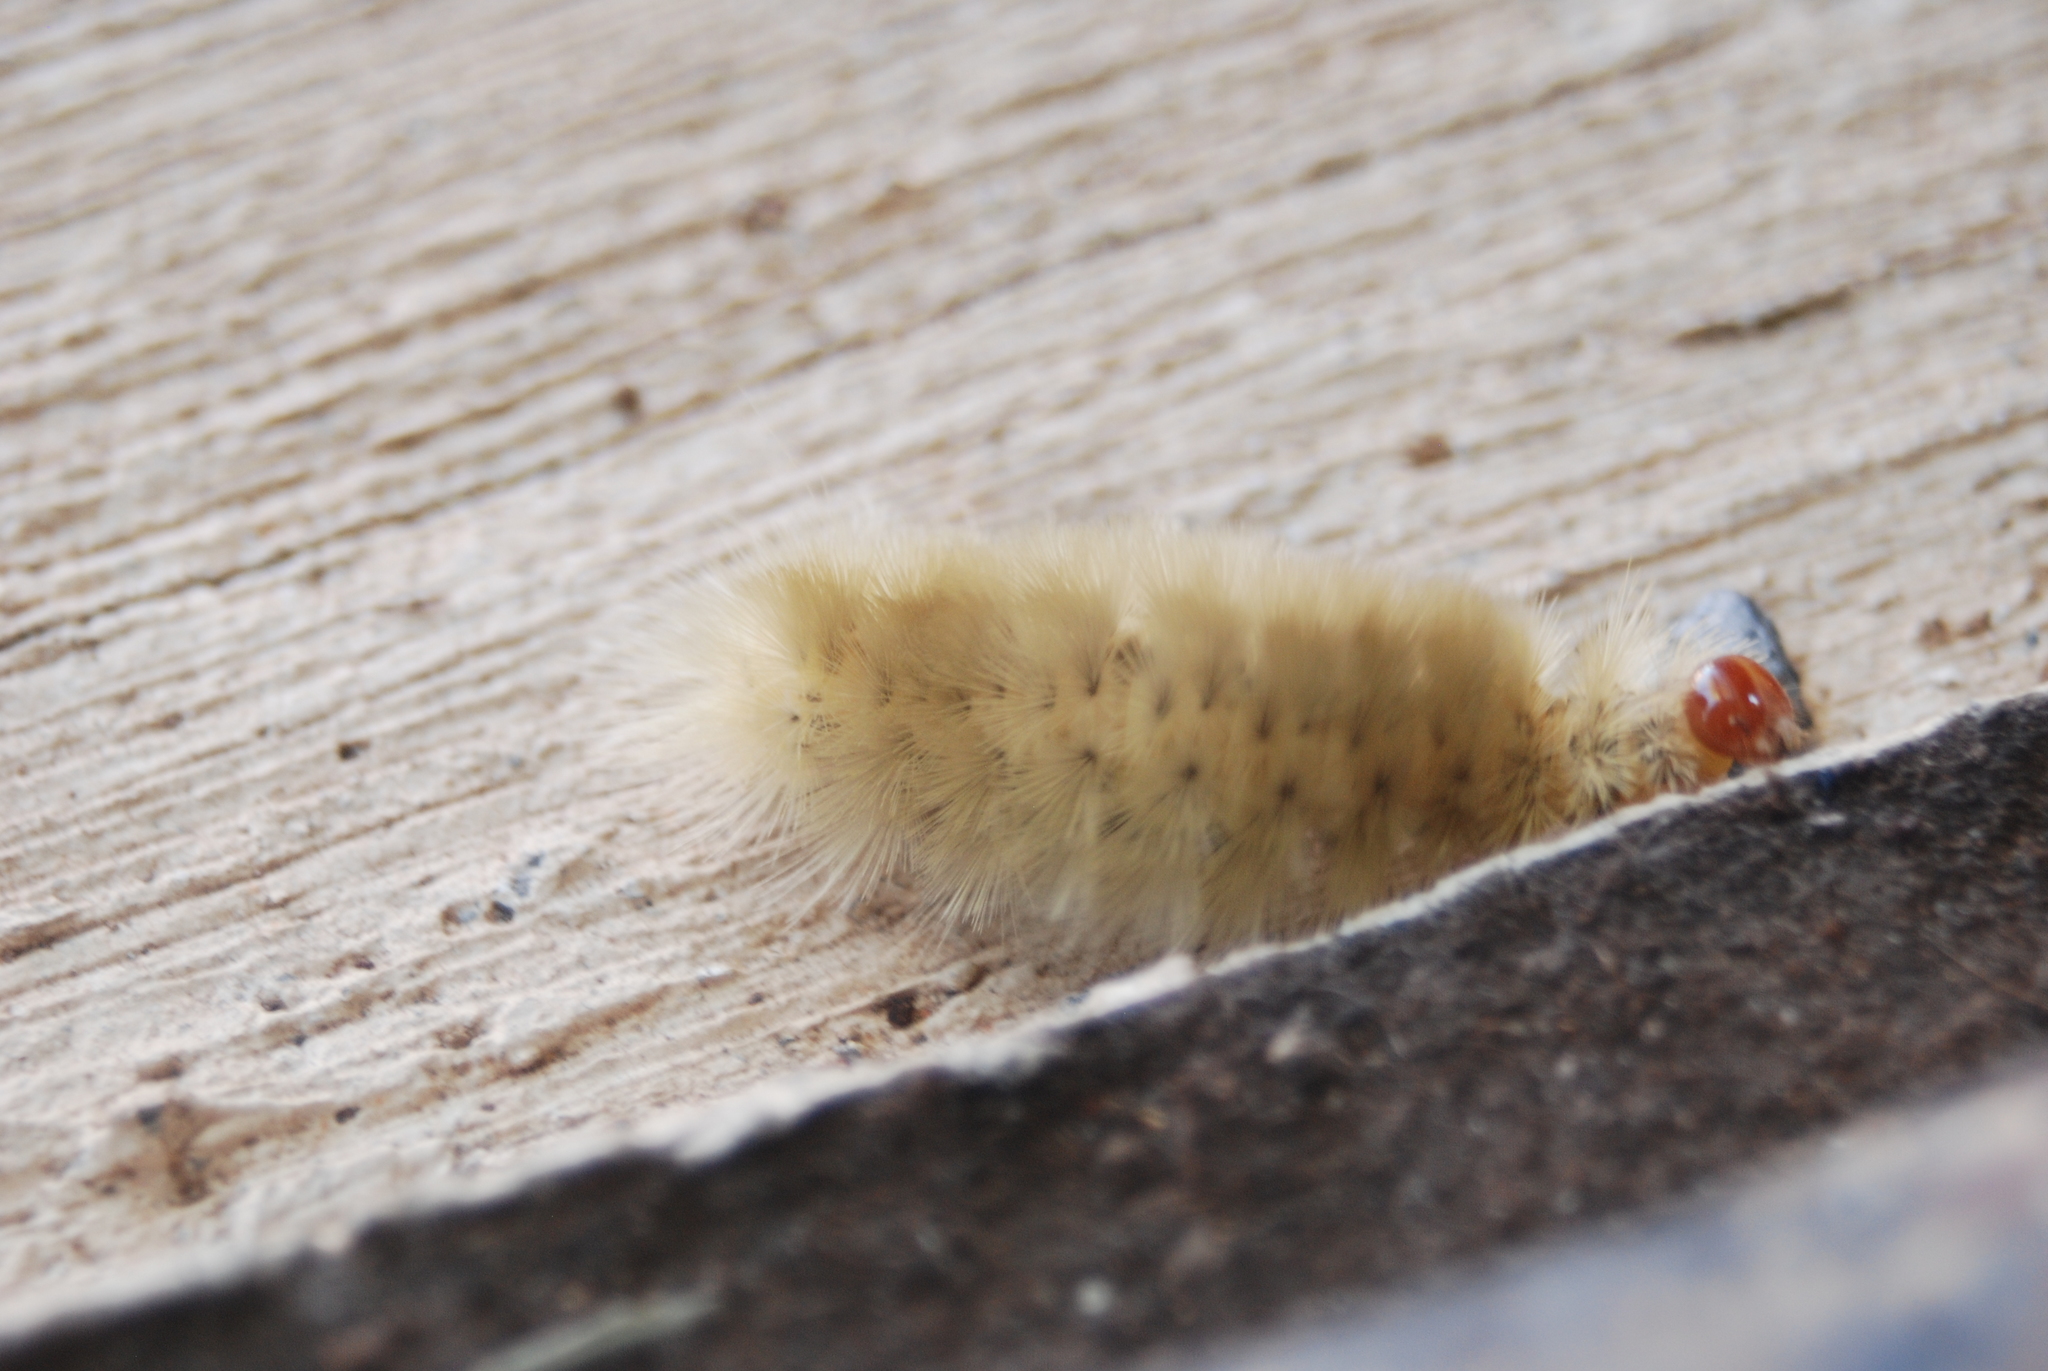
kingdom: Animalia
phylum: Arthropoda
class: Insecta
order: Lepidoptera
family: Erebidae
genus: Halysidota
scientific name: Halysidota harrisii
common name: Sycamore tussock moth
